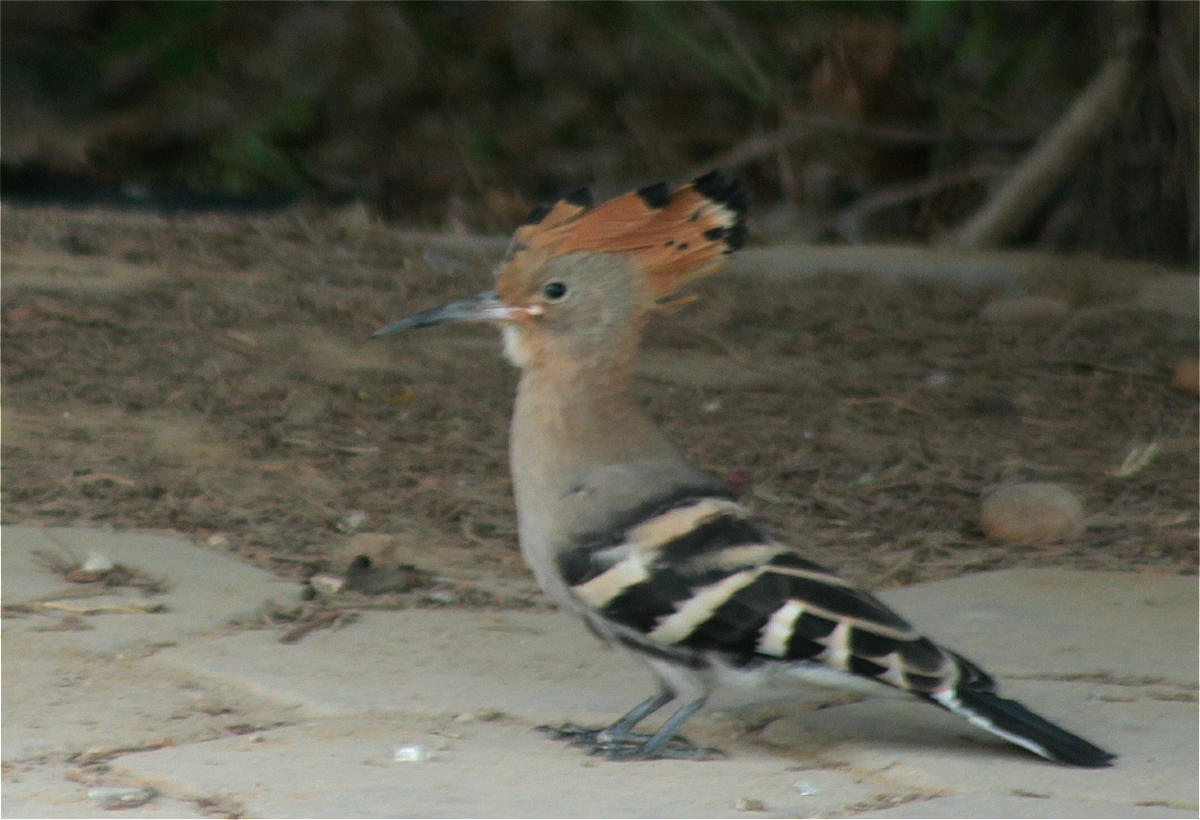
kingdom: Animalia
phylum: Chordata
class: Aves
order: Bucerotiformes
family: Upupidae
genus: Upupa
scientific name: Upupa epops
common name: Eurasian hoopoe
